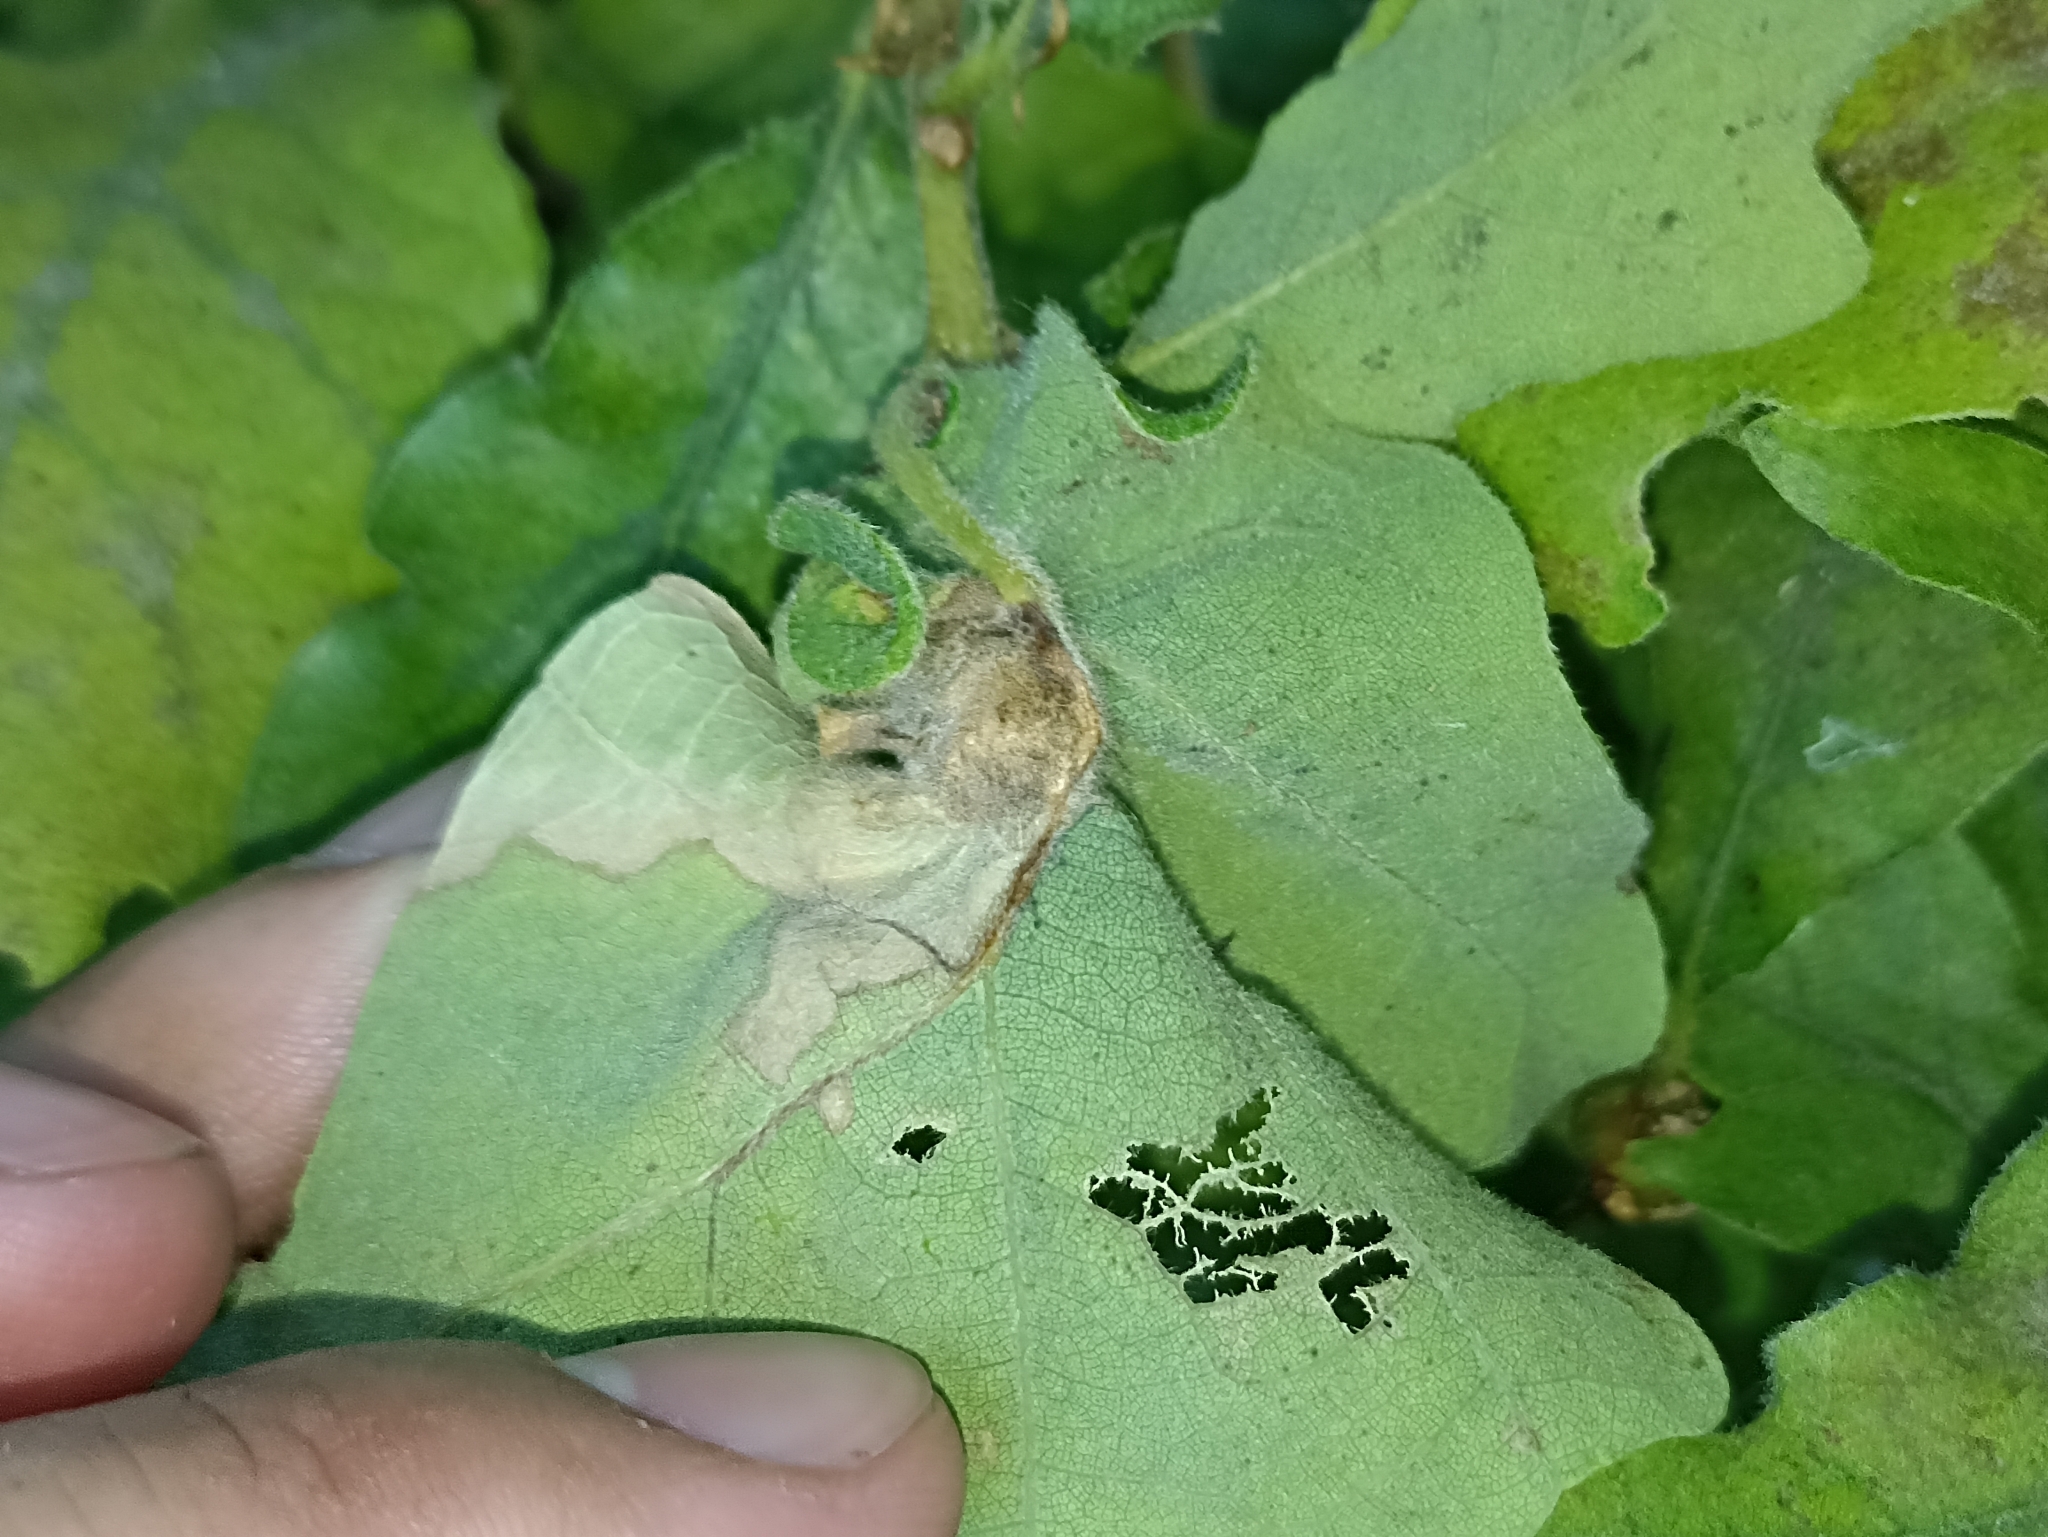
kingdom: Animalia
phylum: Arthropoda
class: Insecta
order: Hymenoptera
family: Cynipidae
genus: Andricus
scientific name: Andricus curvator
